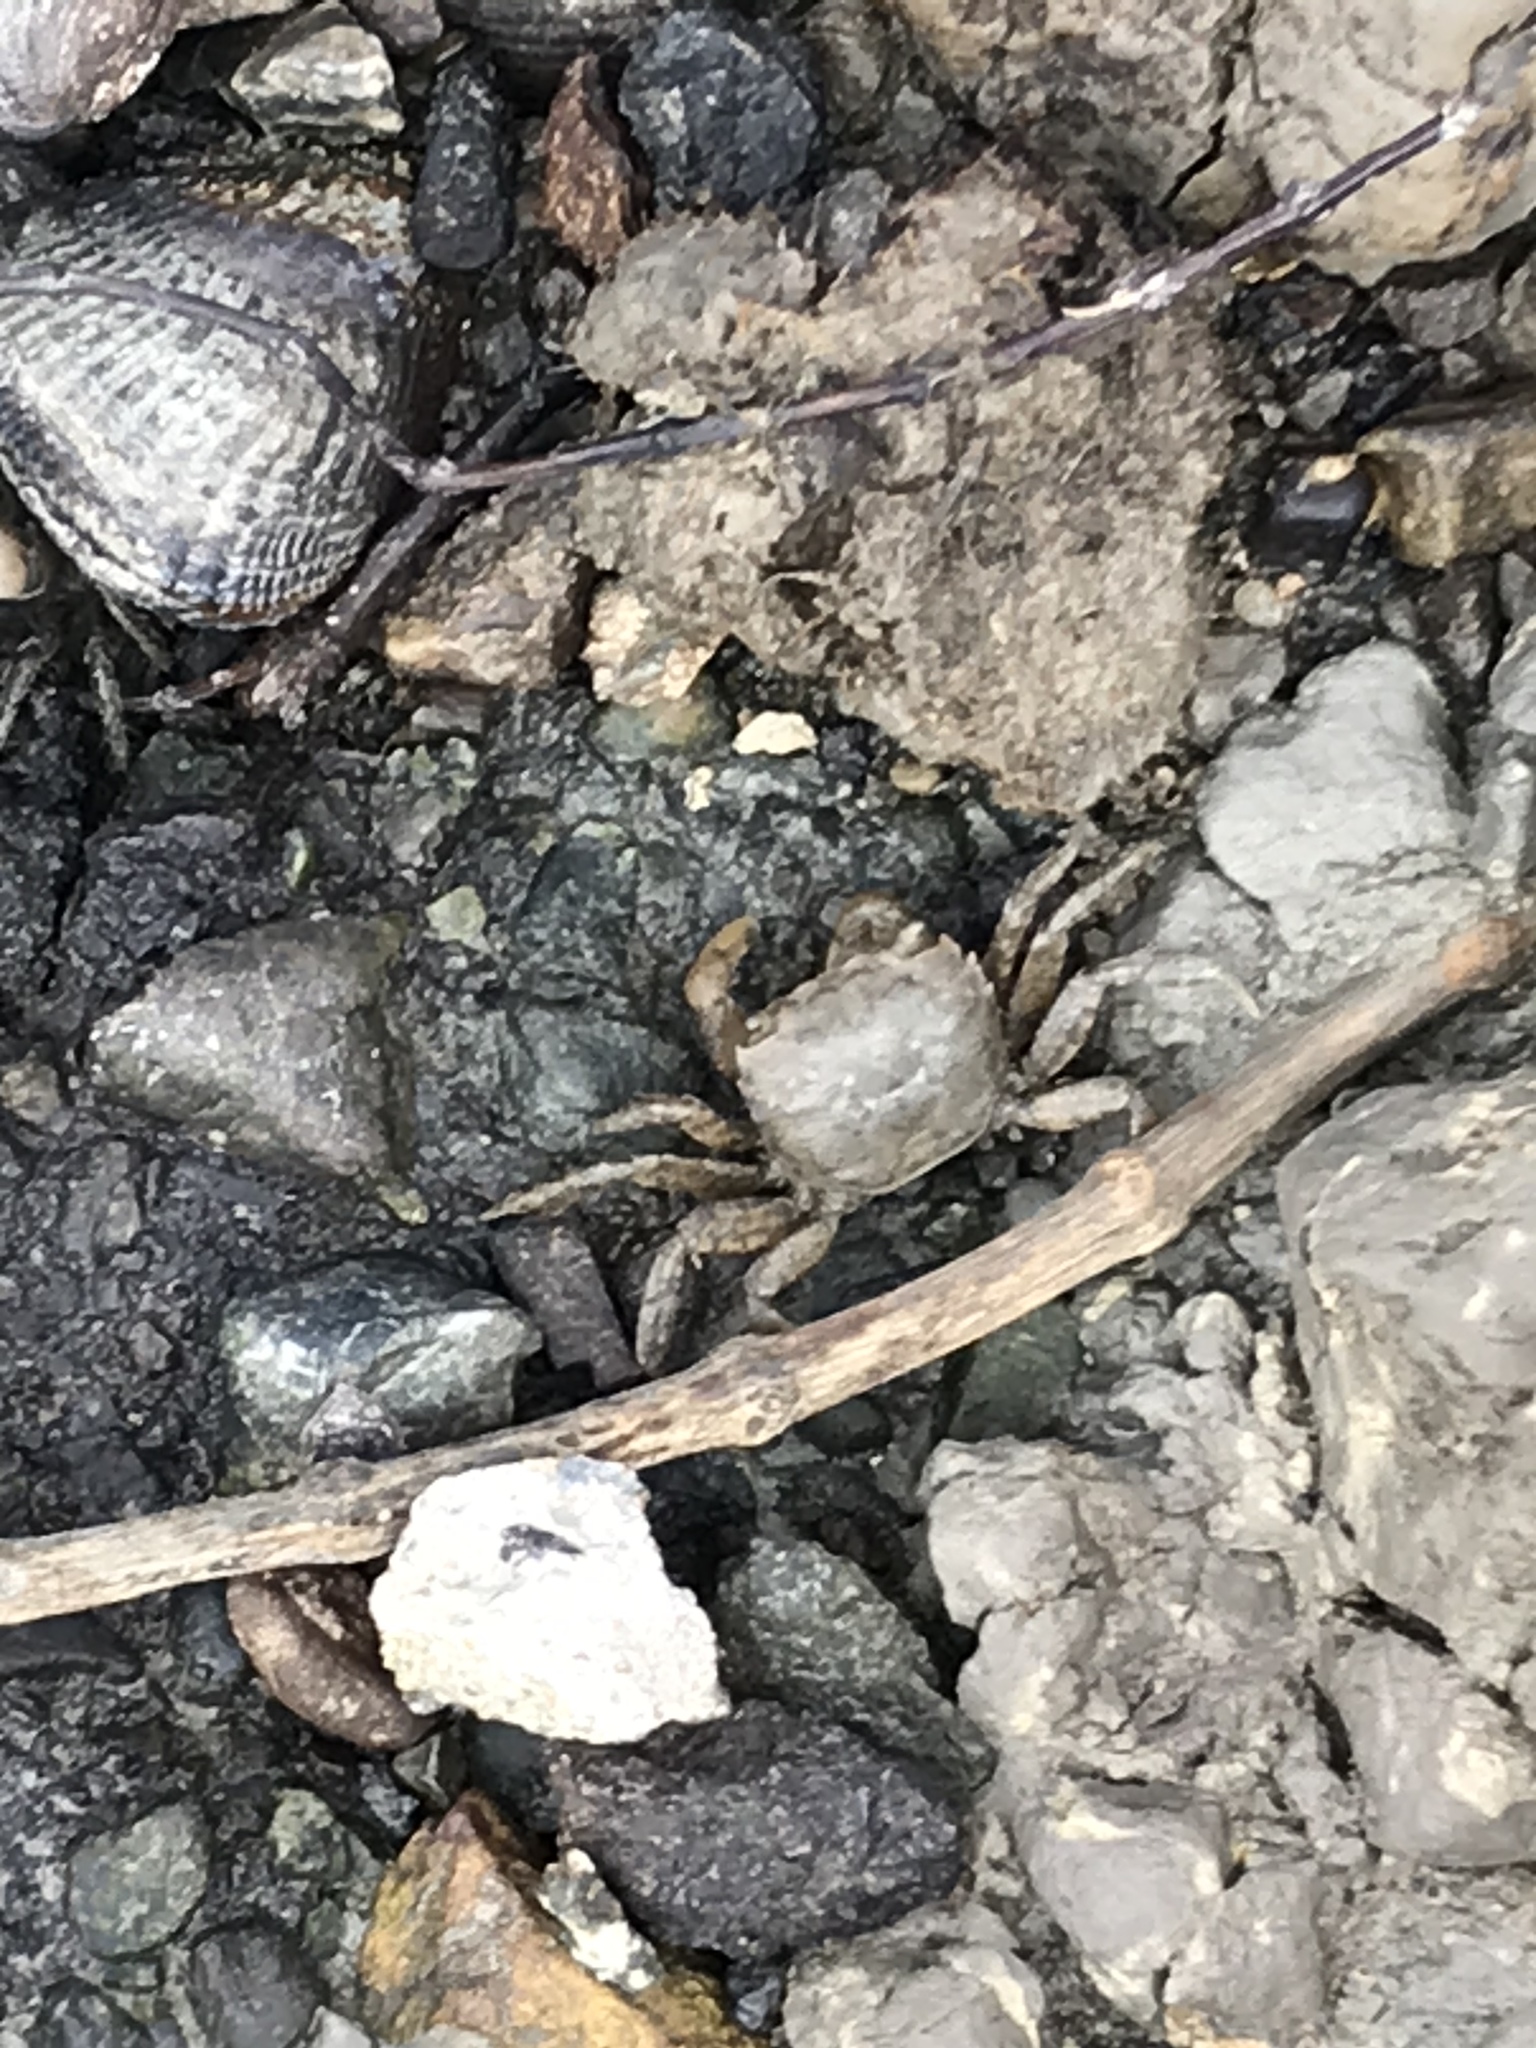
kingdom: Animalia
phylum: Arthropoda
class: Malacostraca
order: Decapoda
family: Varunidae
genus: Hemigrapsus
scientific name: Hemigrapsus oregonensis
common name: Yellow shore crab
